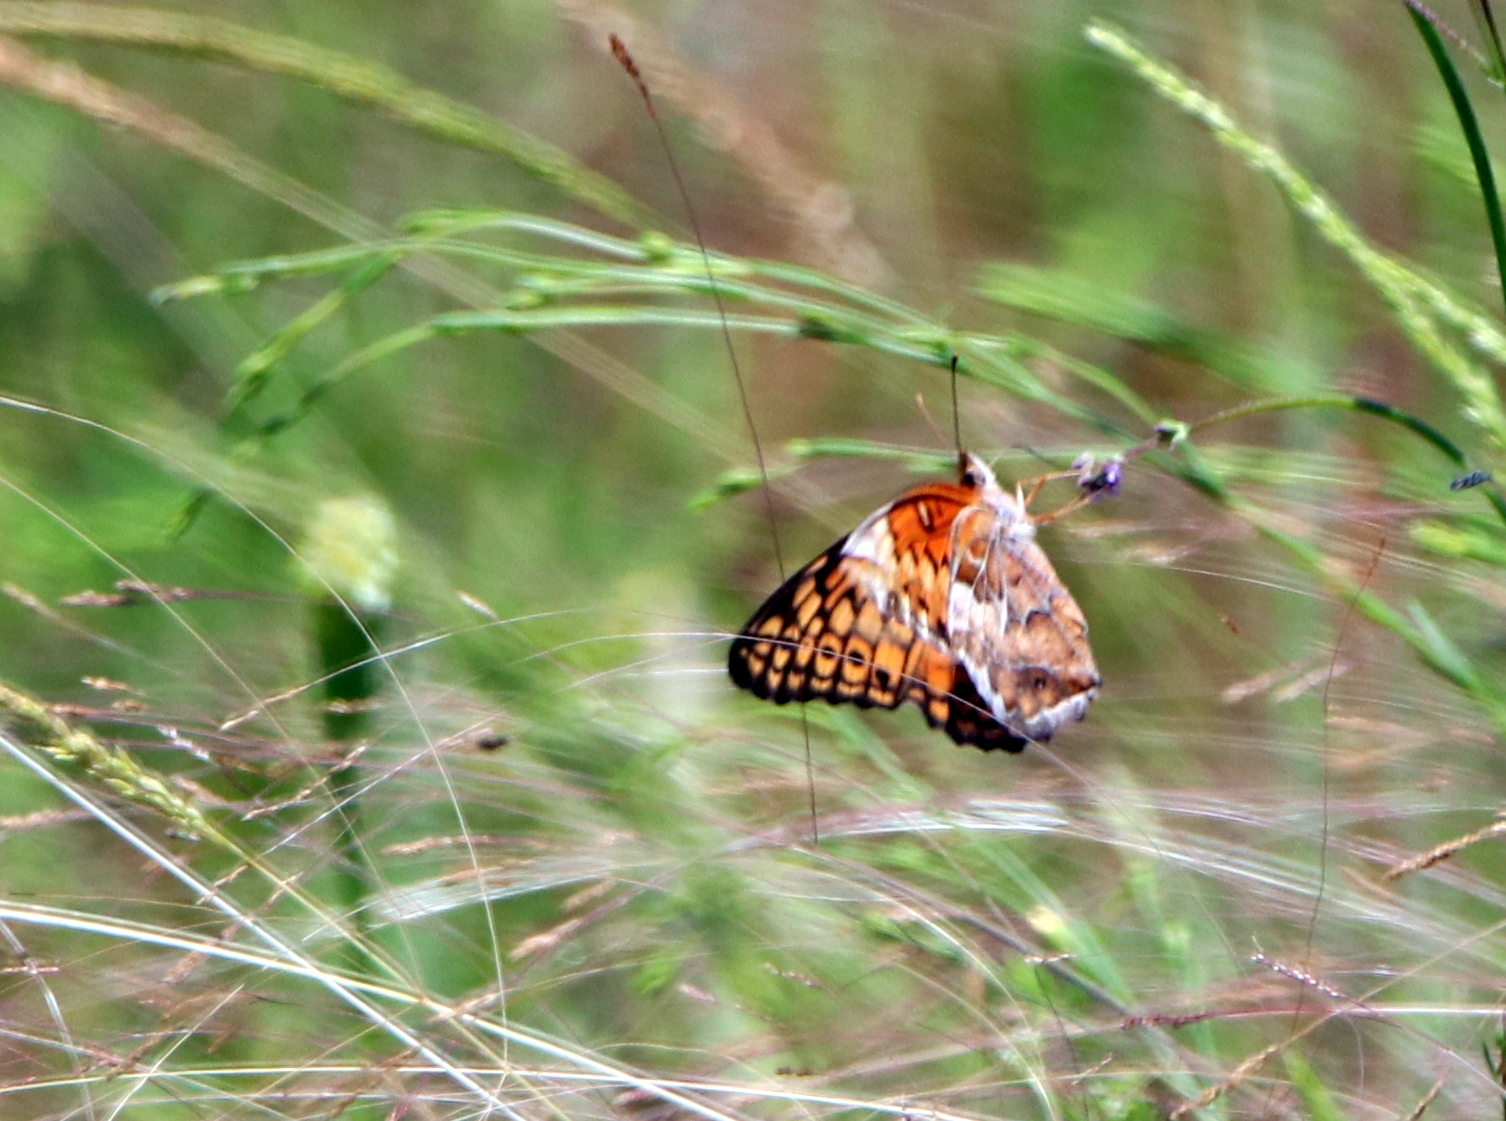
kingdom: Animalia
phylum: Arthropoda
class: Insecta
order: Lepidoptera
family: Nymphalidae
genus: Euptoieta
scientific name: Euptoieta claudia
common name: Variegated fritillary
